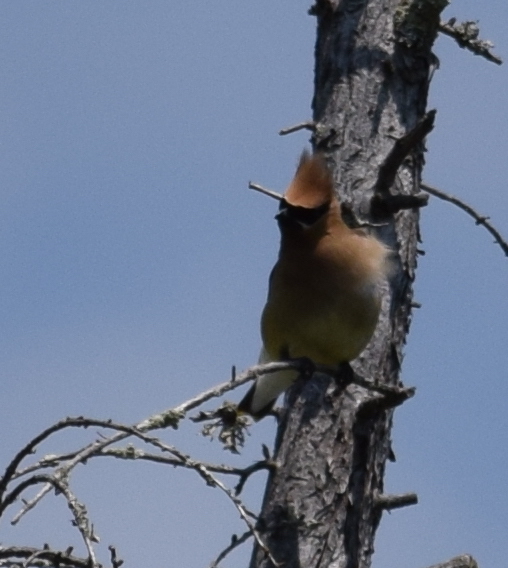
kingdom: Animalia
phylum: Chordata
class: Aves
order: Passeriformes
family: Bombycillidae
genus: Bombycilla
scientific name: Bombycilla cedrorum
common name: Cedar waxwing
